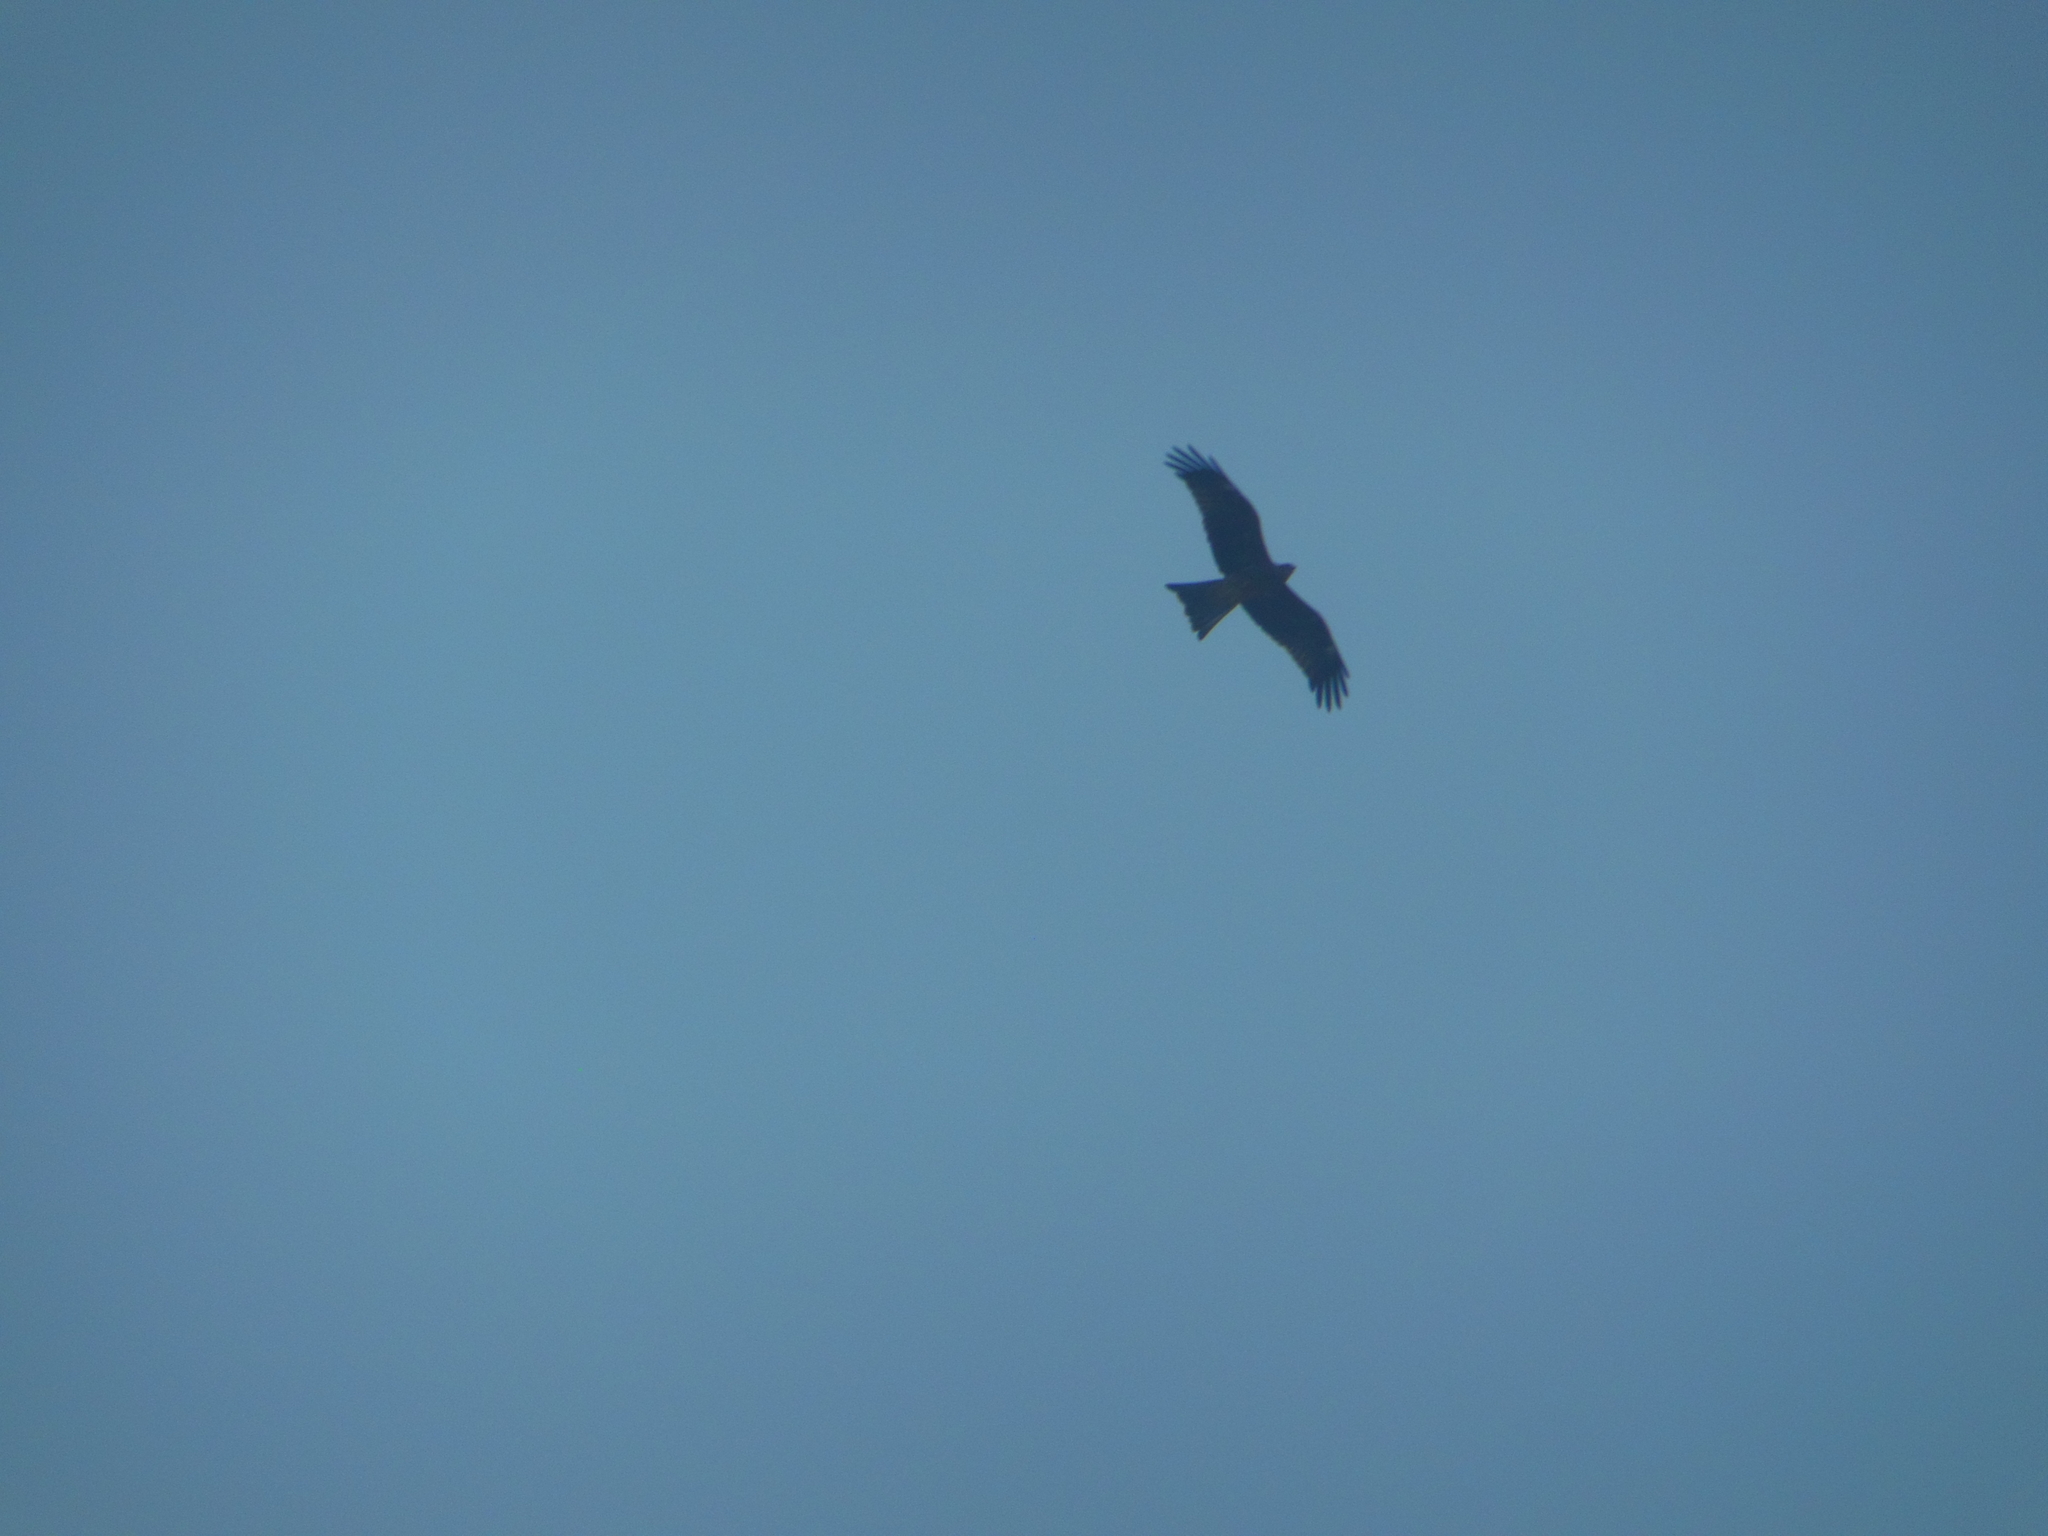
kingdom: Animalia
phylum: Chordata
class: Aves
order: Accipitriformes
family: Accipitridae
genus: Milvus
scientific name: Milvus migrans
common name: Black kite
